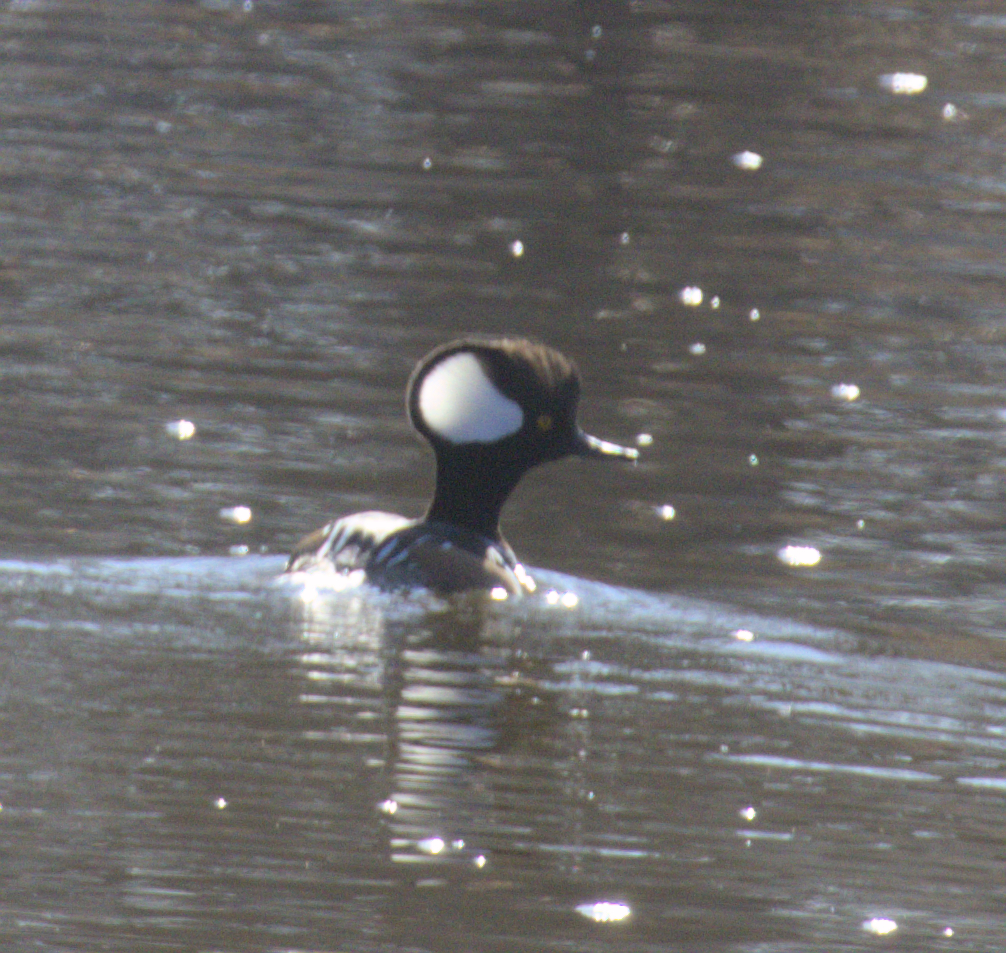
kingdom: Animalia
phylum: Chordata
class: Aves
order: Anseriformes
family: Anatidae
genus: Lophodytes
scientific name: Lophodytes cucullatus
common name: Hooded merganser
